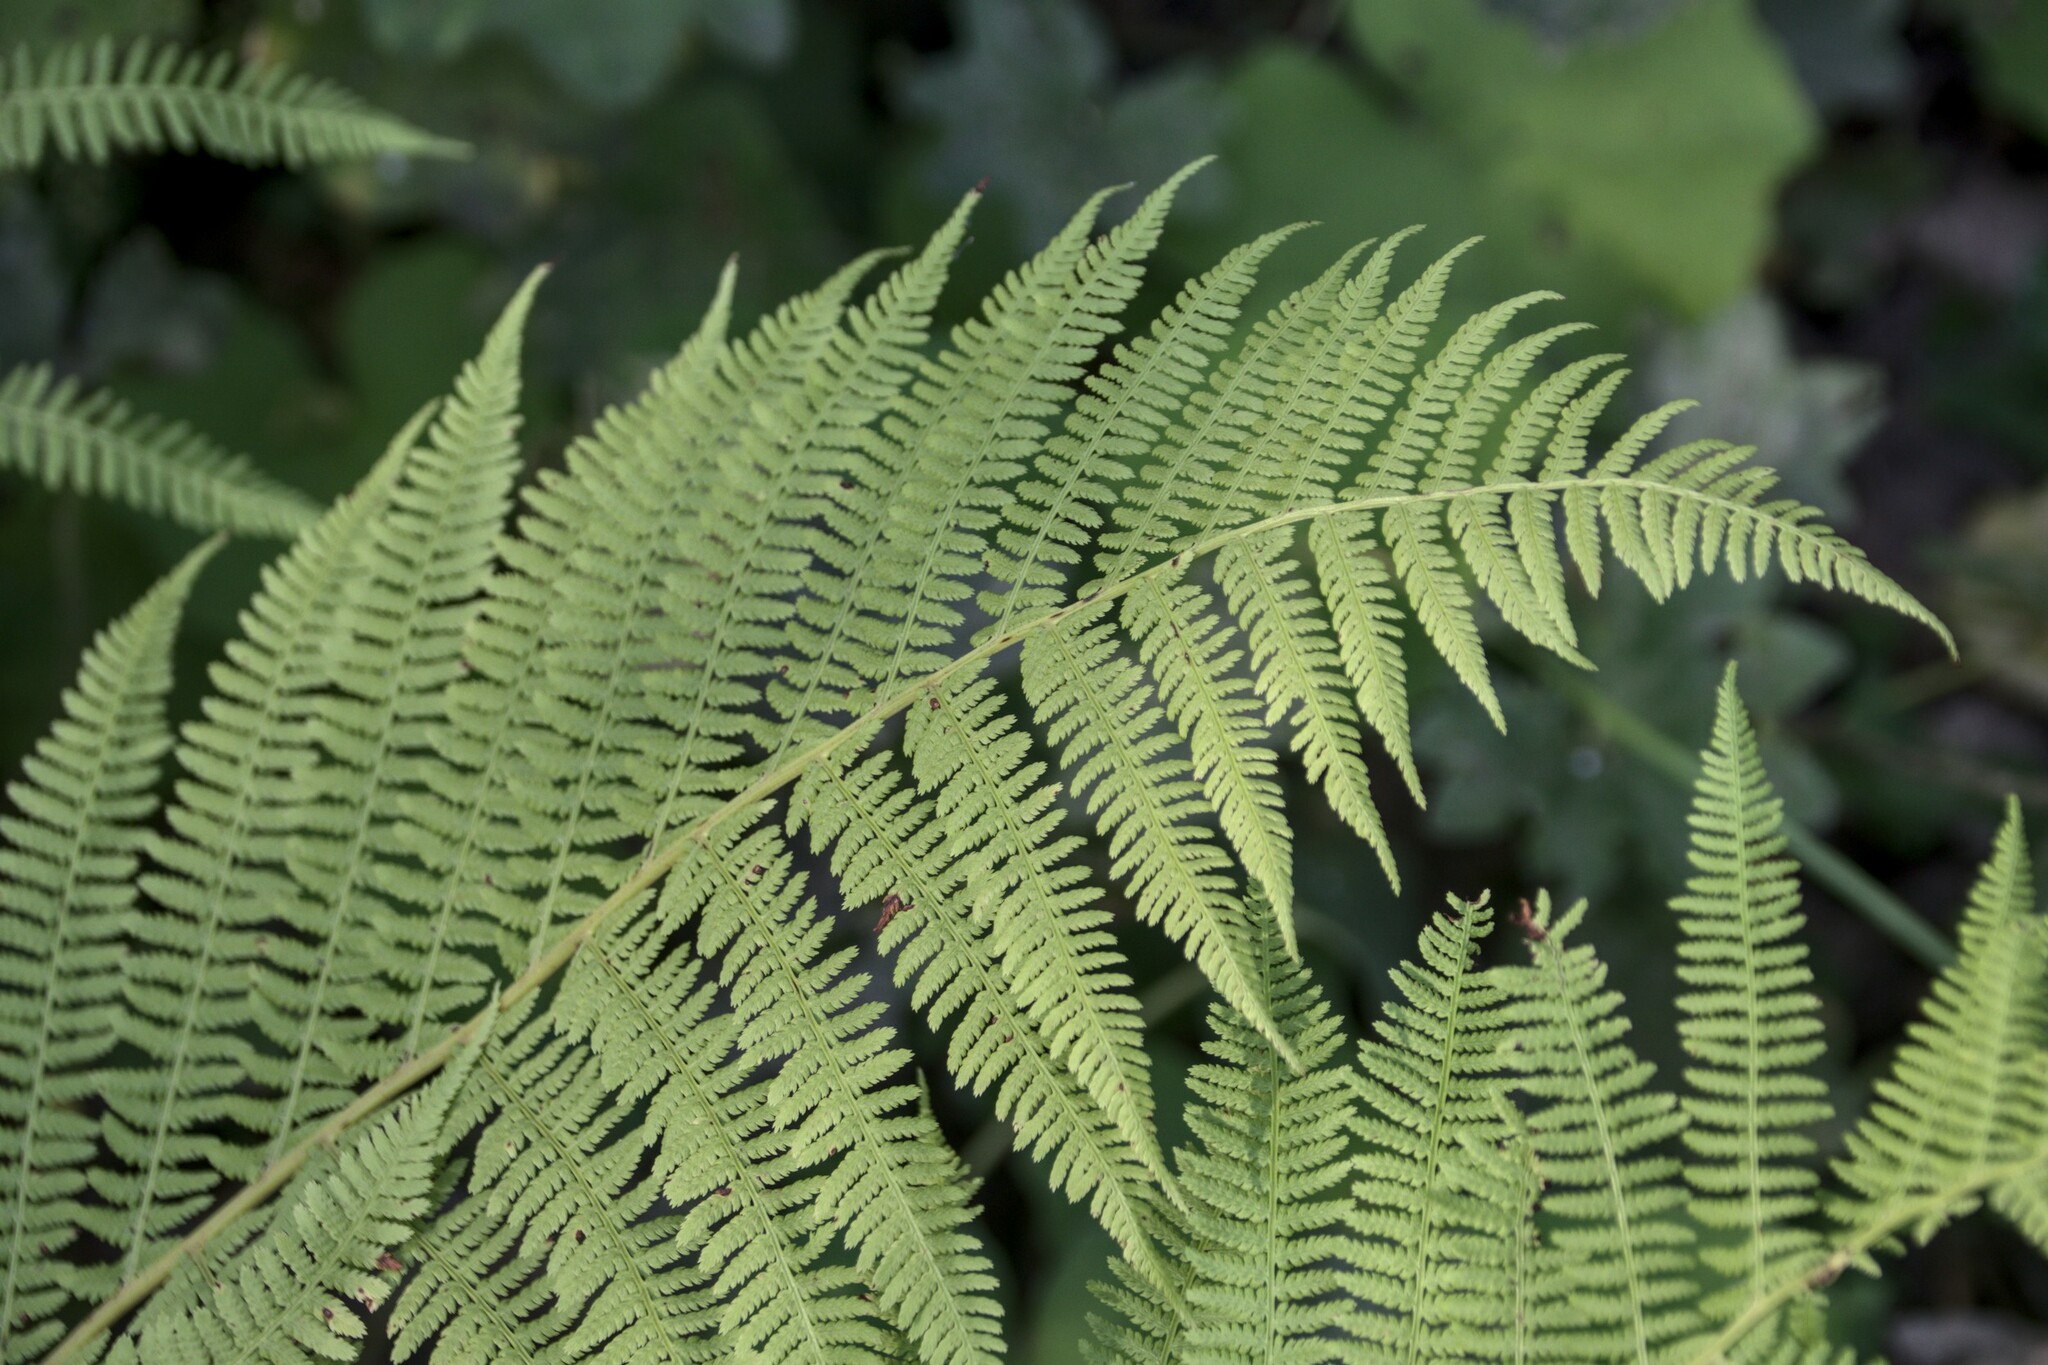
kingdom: Plantae
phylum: Tracheophyta
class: Polypodiopsida
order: Polypodiales
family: Athyriaceae
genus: Athyrium
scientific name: Athyrium filix-femina
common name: Lady fern
